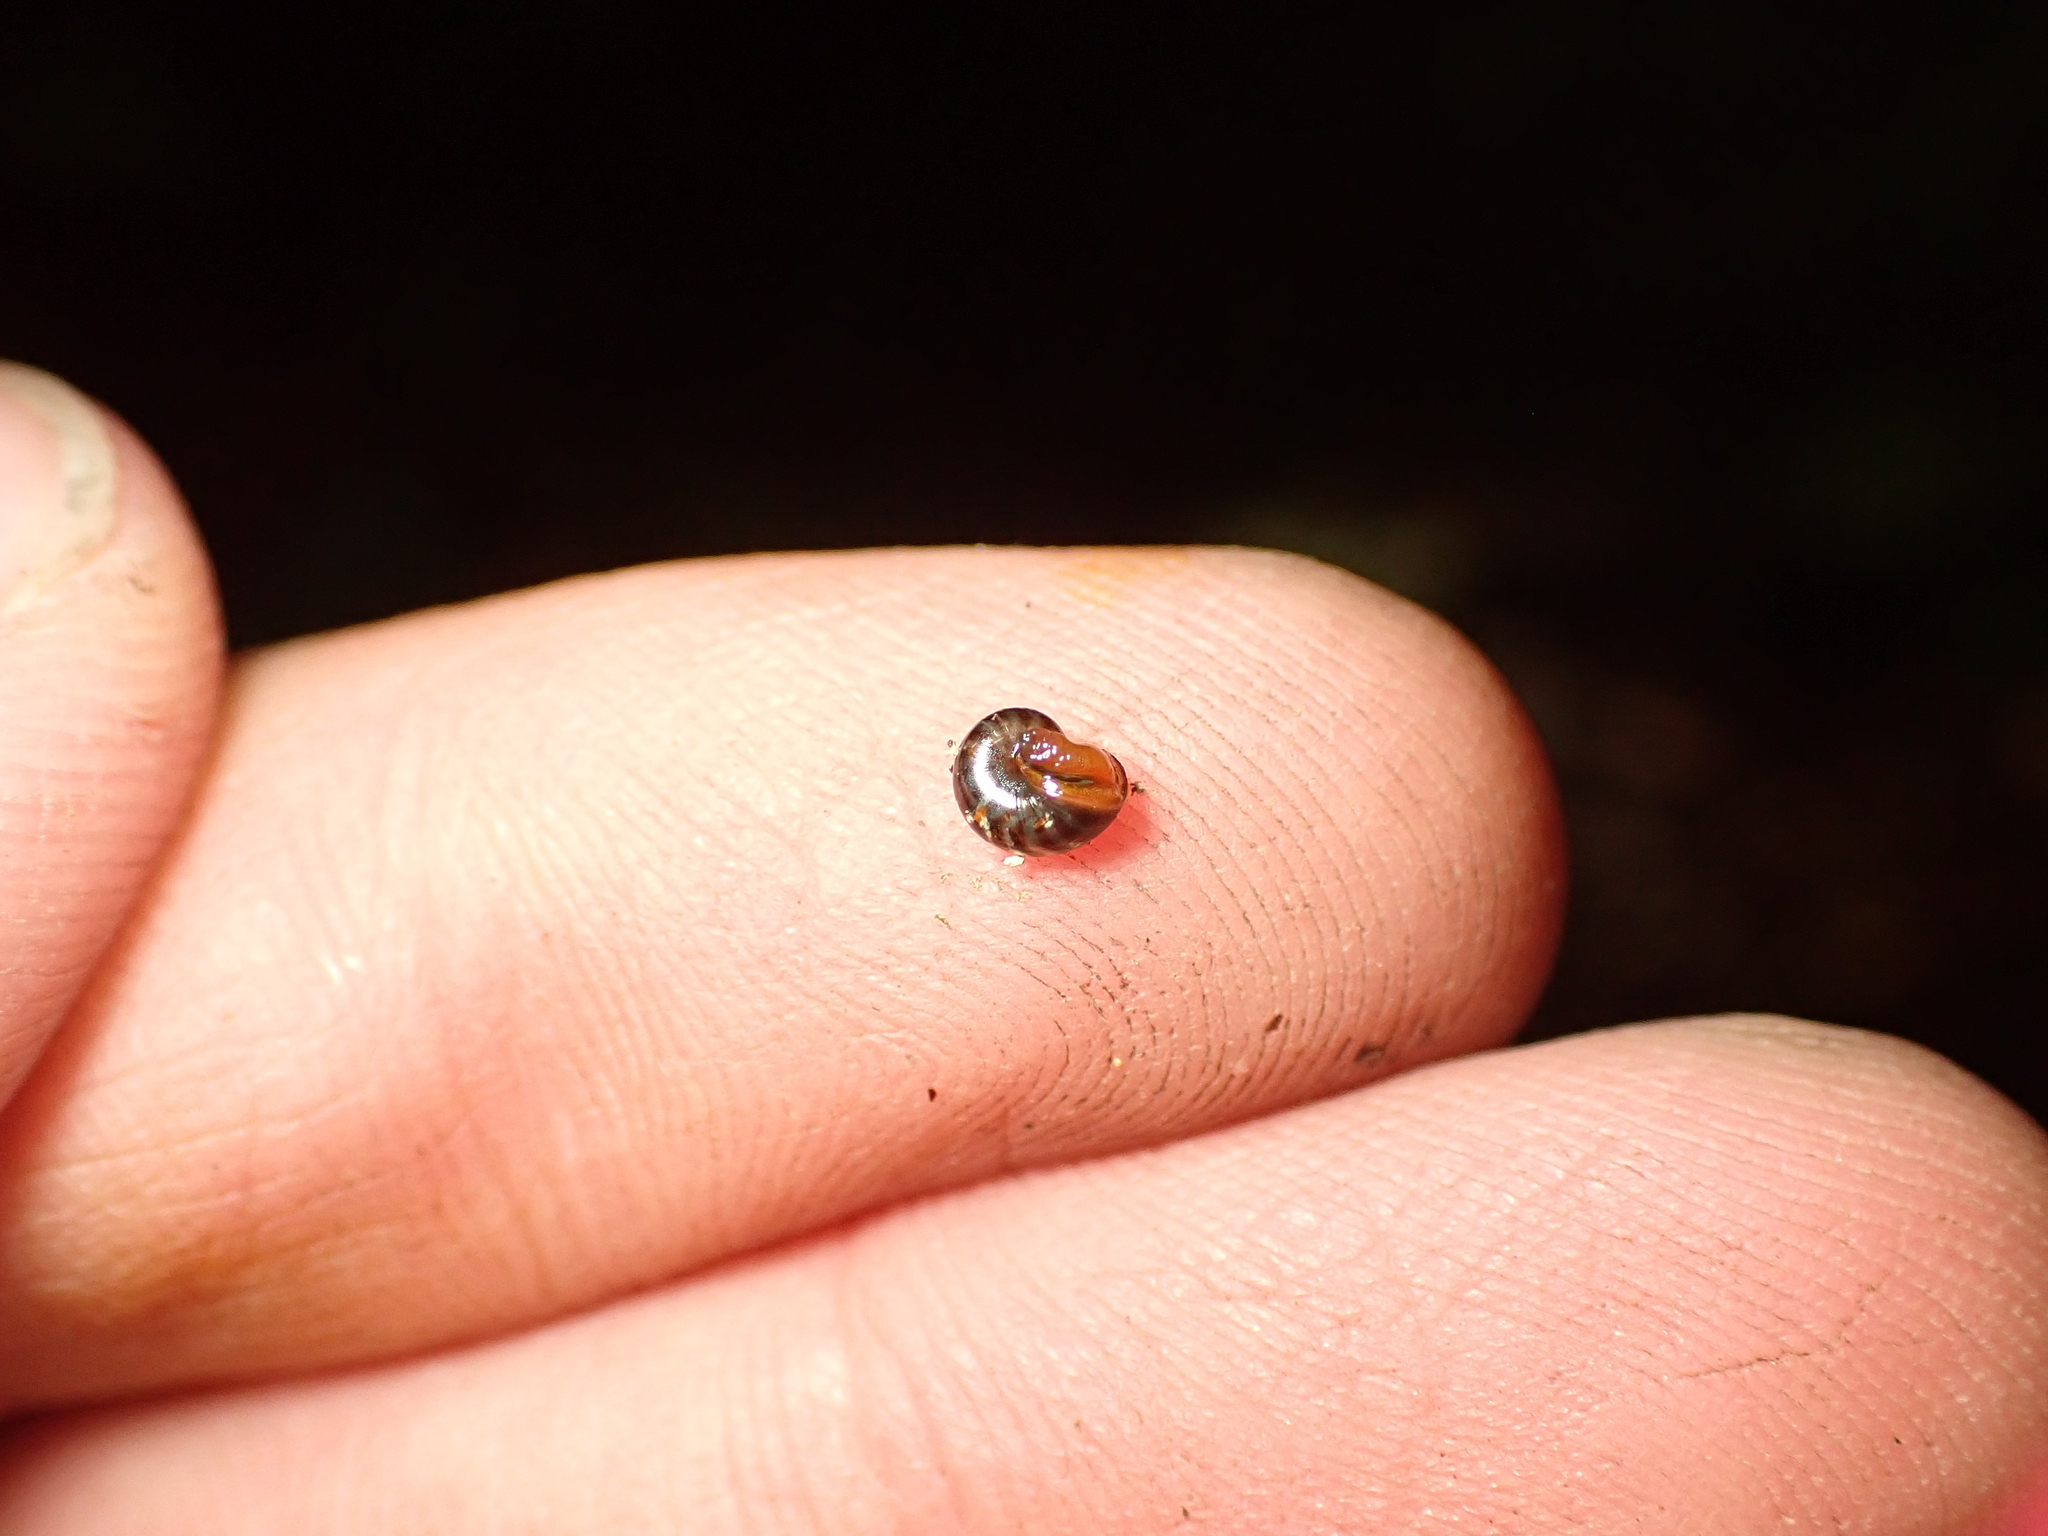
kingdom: Animalia
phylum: Mollusca
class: Gastropoda
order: Stylommatophora
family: Charopidae
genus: Flammulina
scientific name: Flammulina zebra
